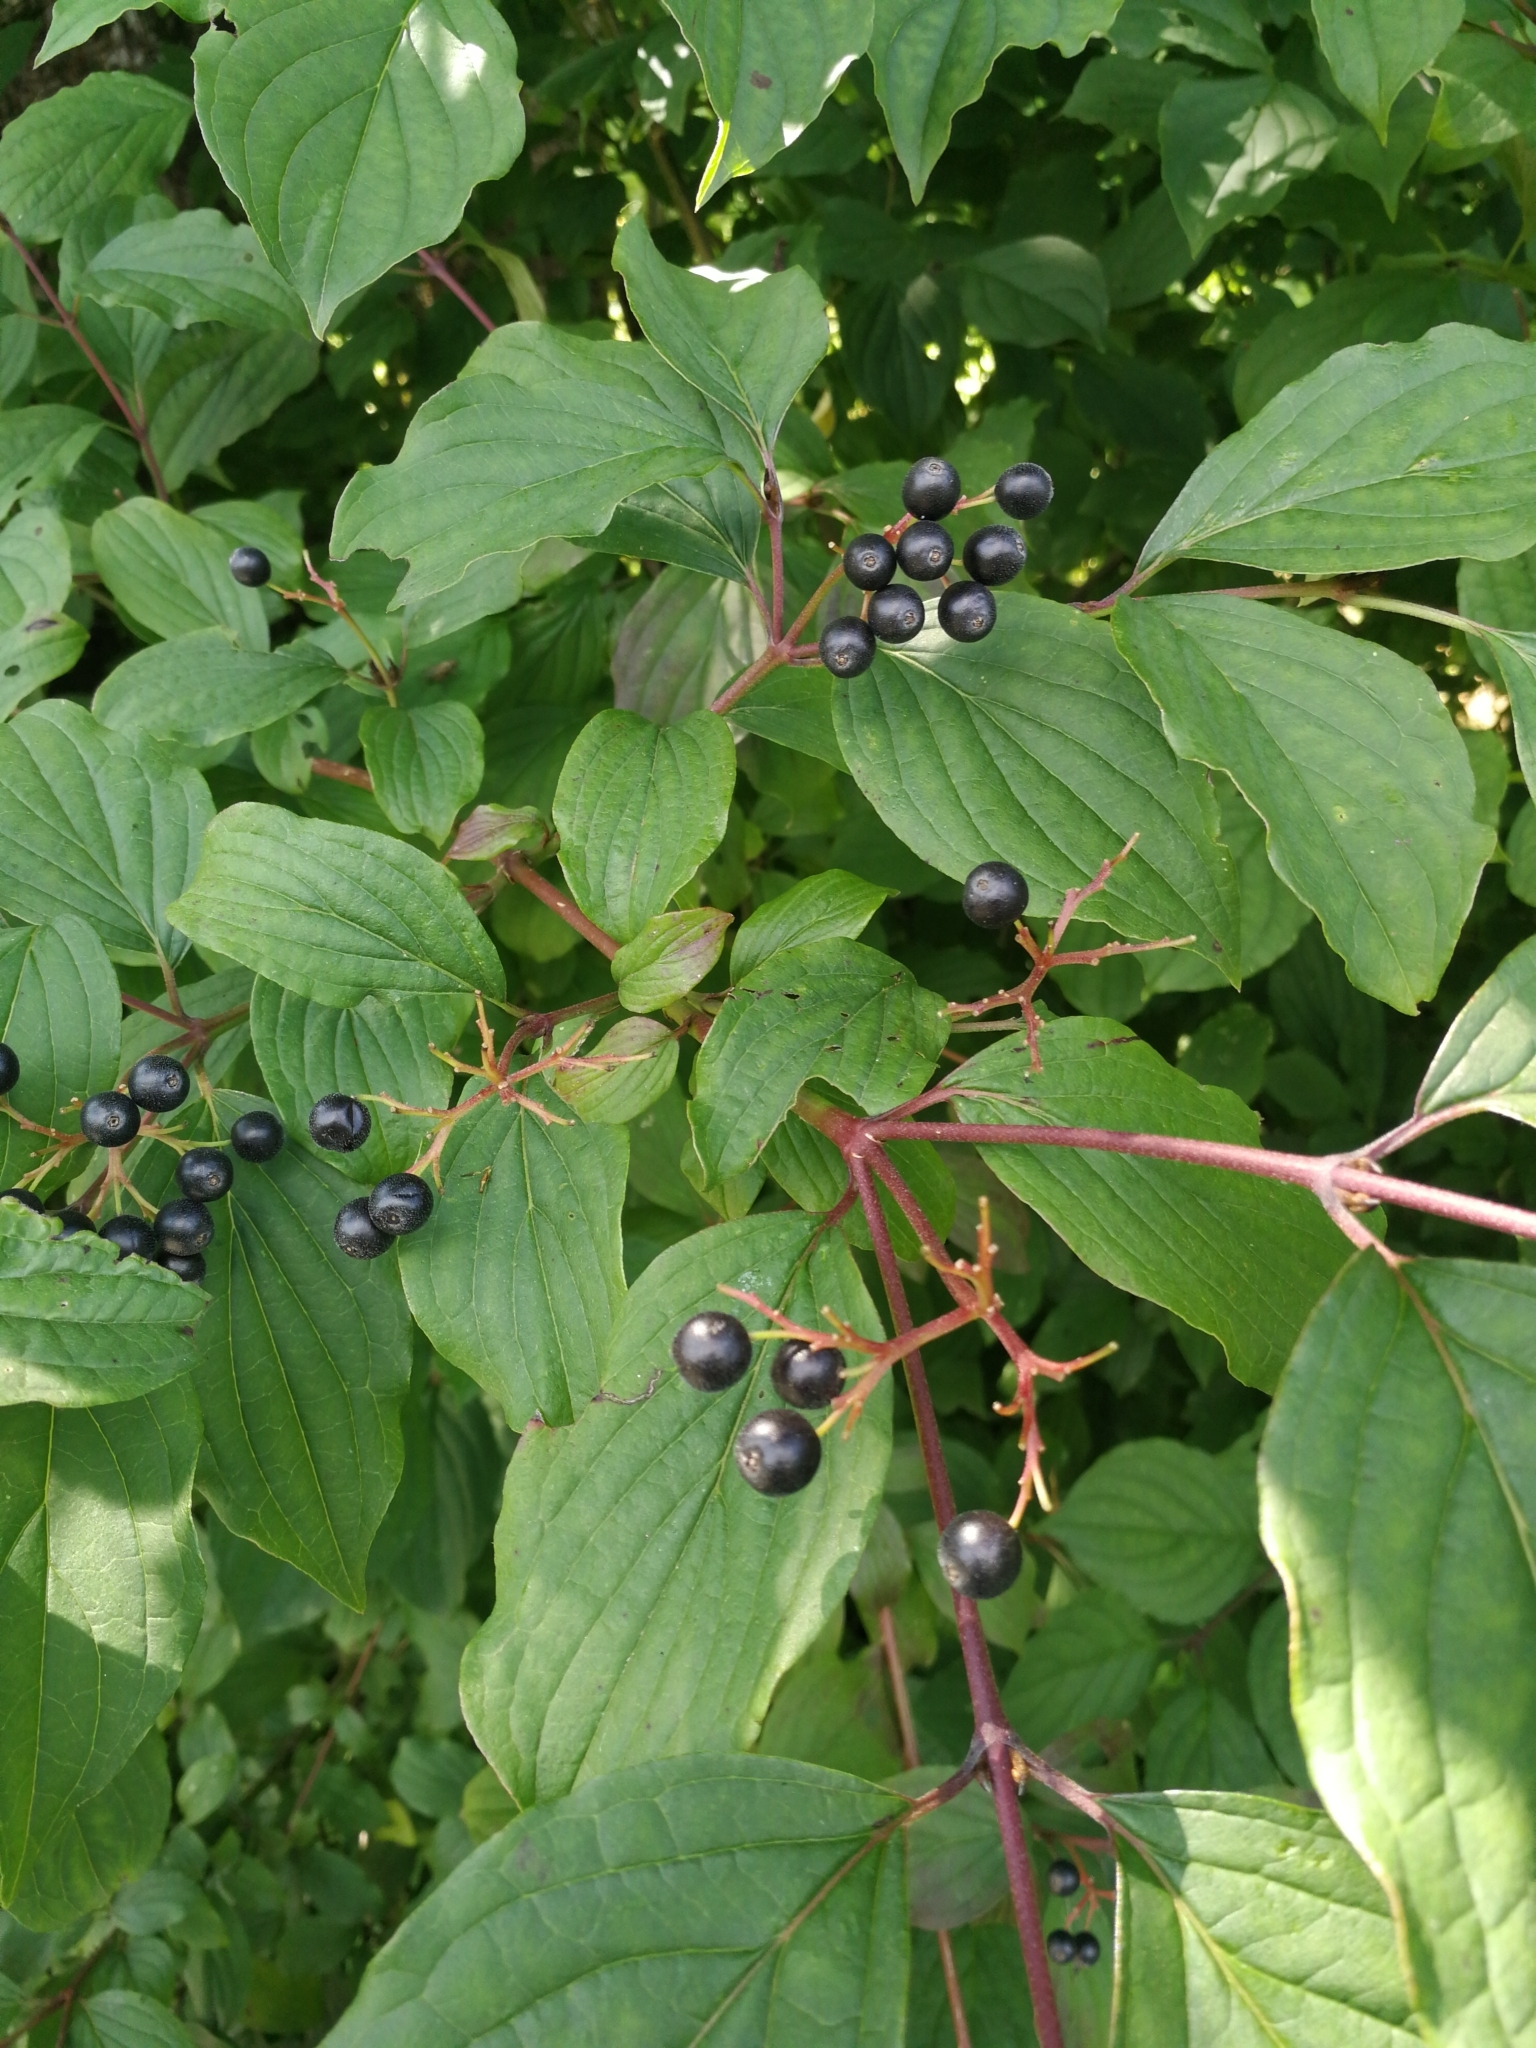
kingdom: Plantae
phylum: Tracheophyta
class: Magnoliopsida
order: Cornales
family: Cornaceae
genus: Cornus
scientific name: Cornus sanguinea
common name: Dogwood
